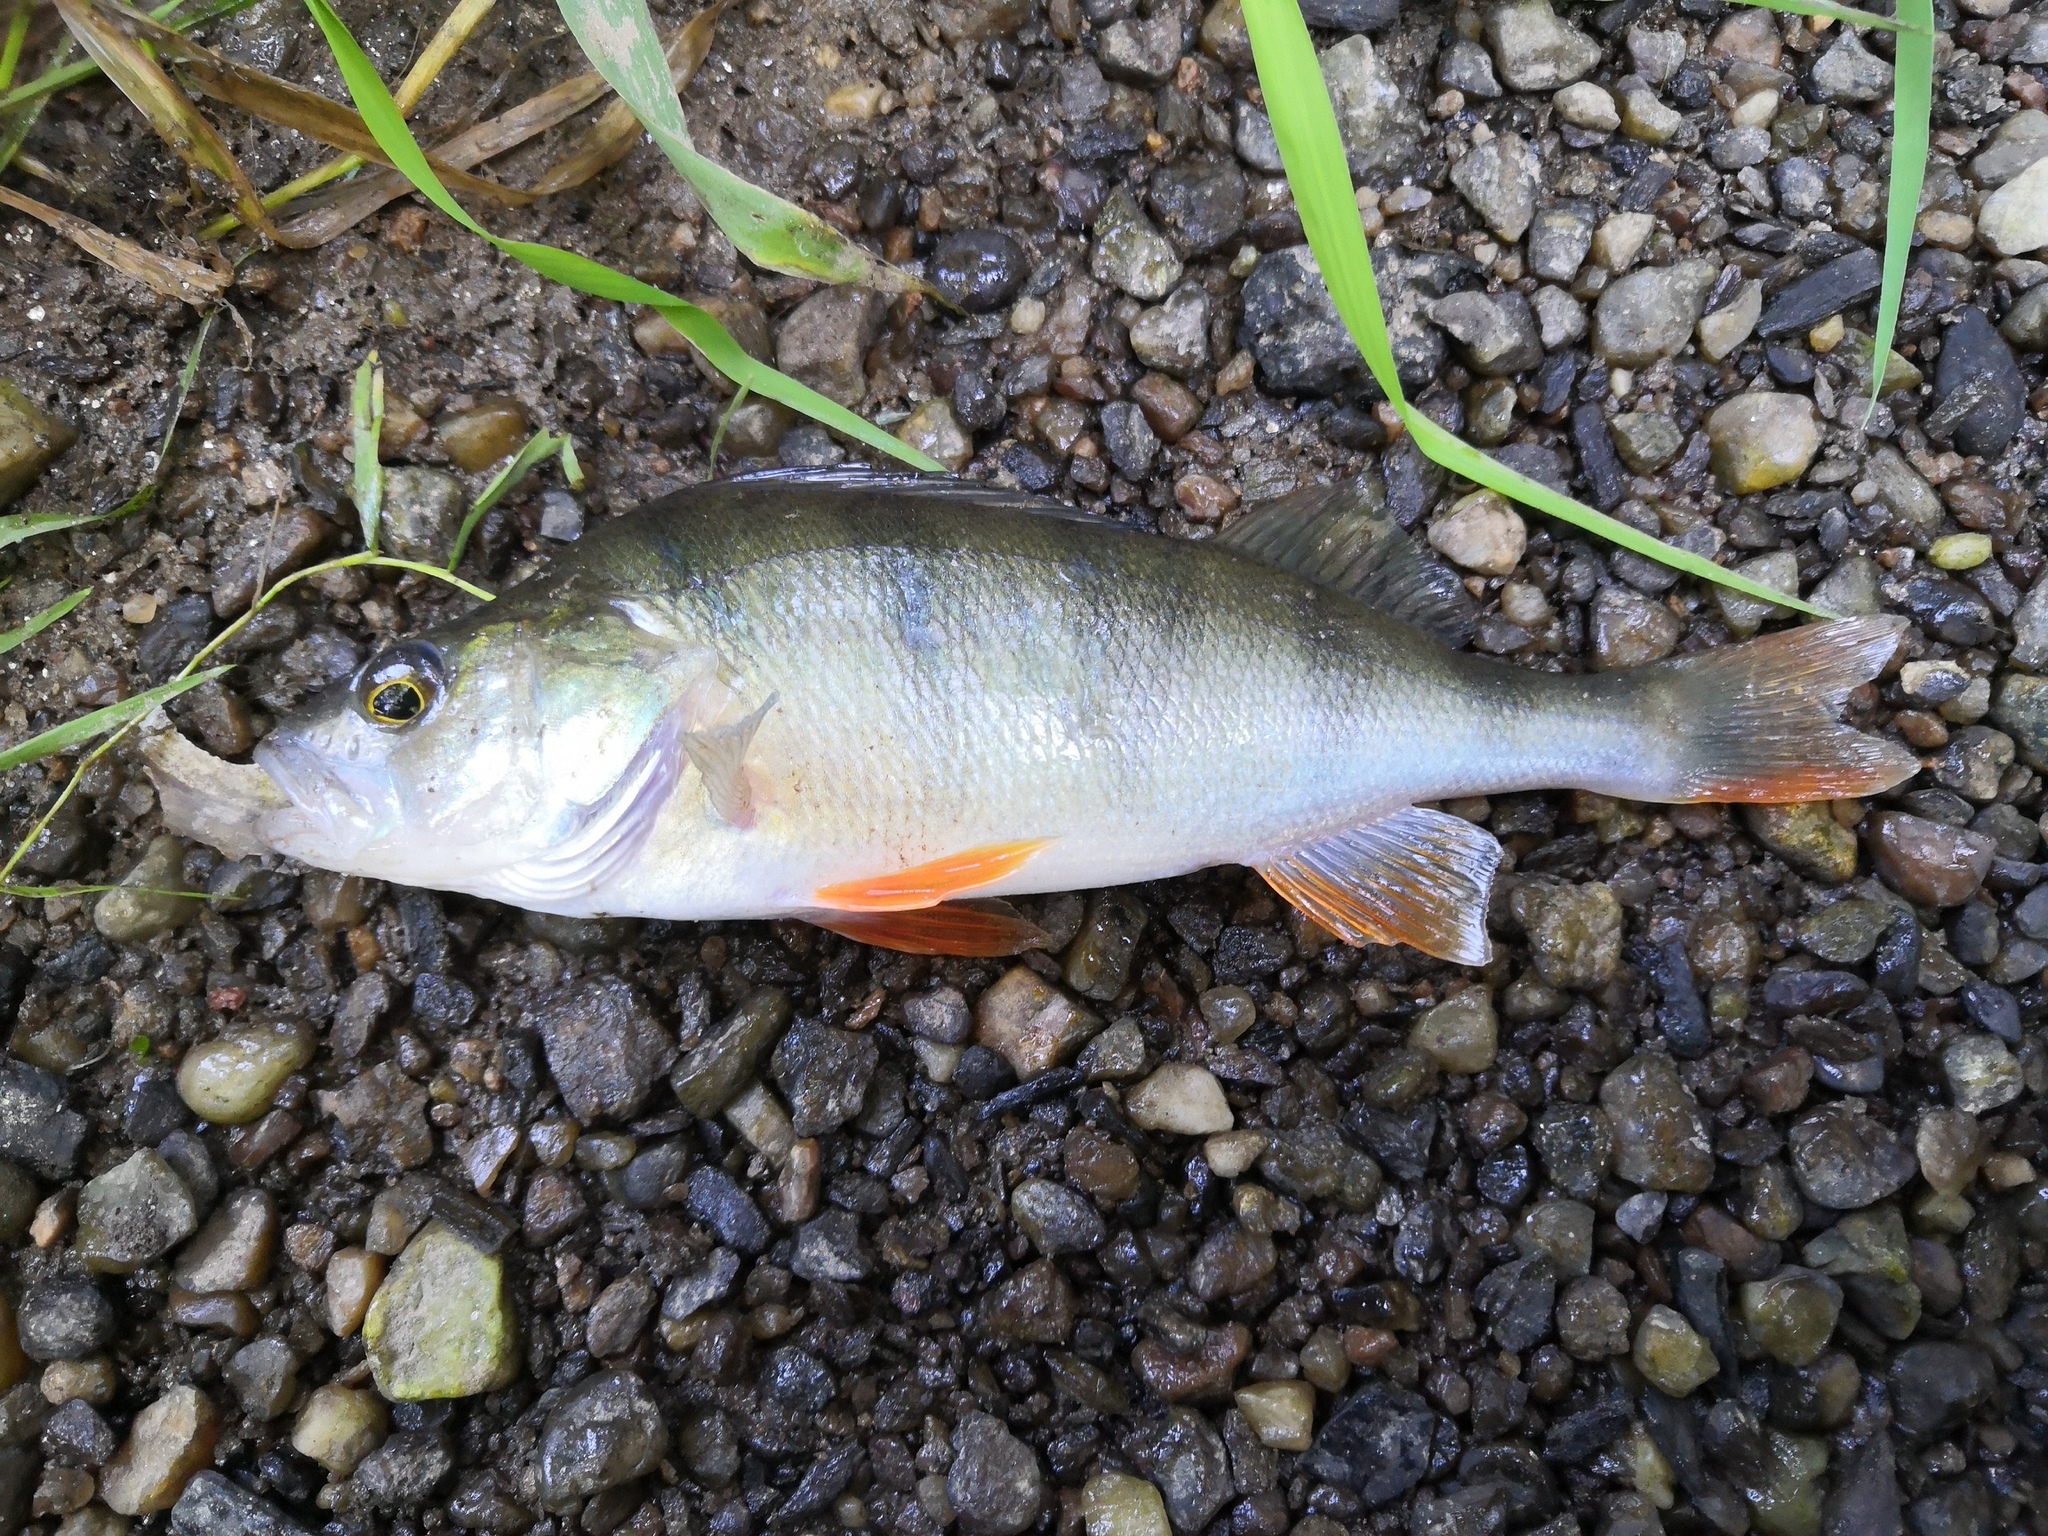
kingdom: Animalia
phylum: Chordata
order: Perciformes
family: Percidae
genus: Perca
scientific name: Perca fluviatilis
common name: Perch
